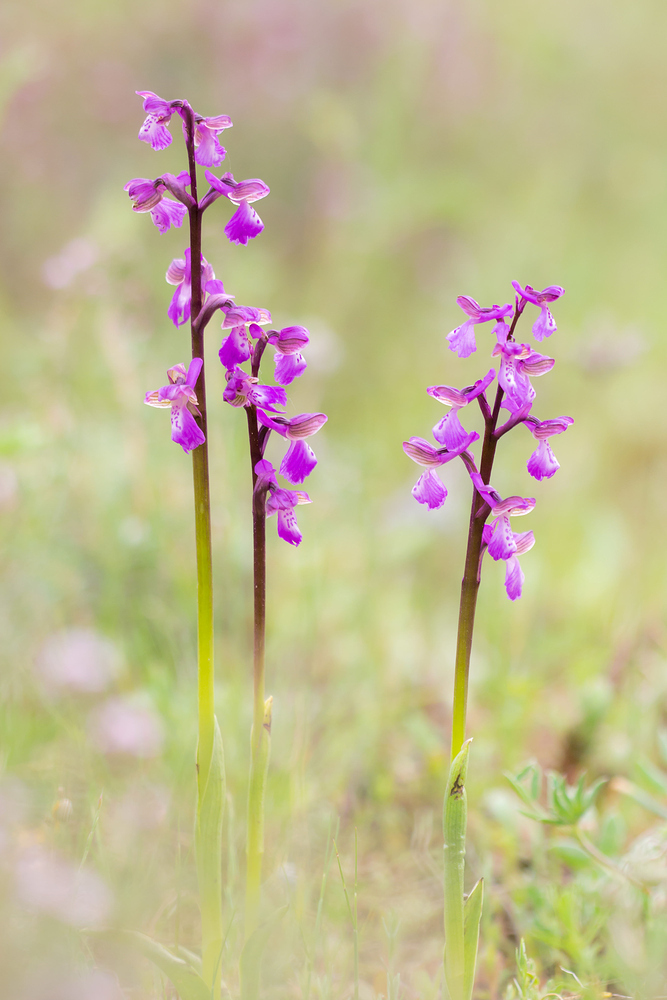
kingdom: Plantae
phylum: Tracheophyta
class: Liliopsida
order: Asparagales
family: Orchidaceae
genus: Anacamptis
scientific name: Anacamptis morio
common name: Green-winged orchid
